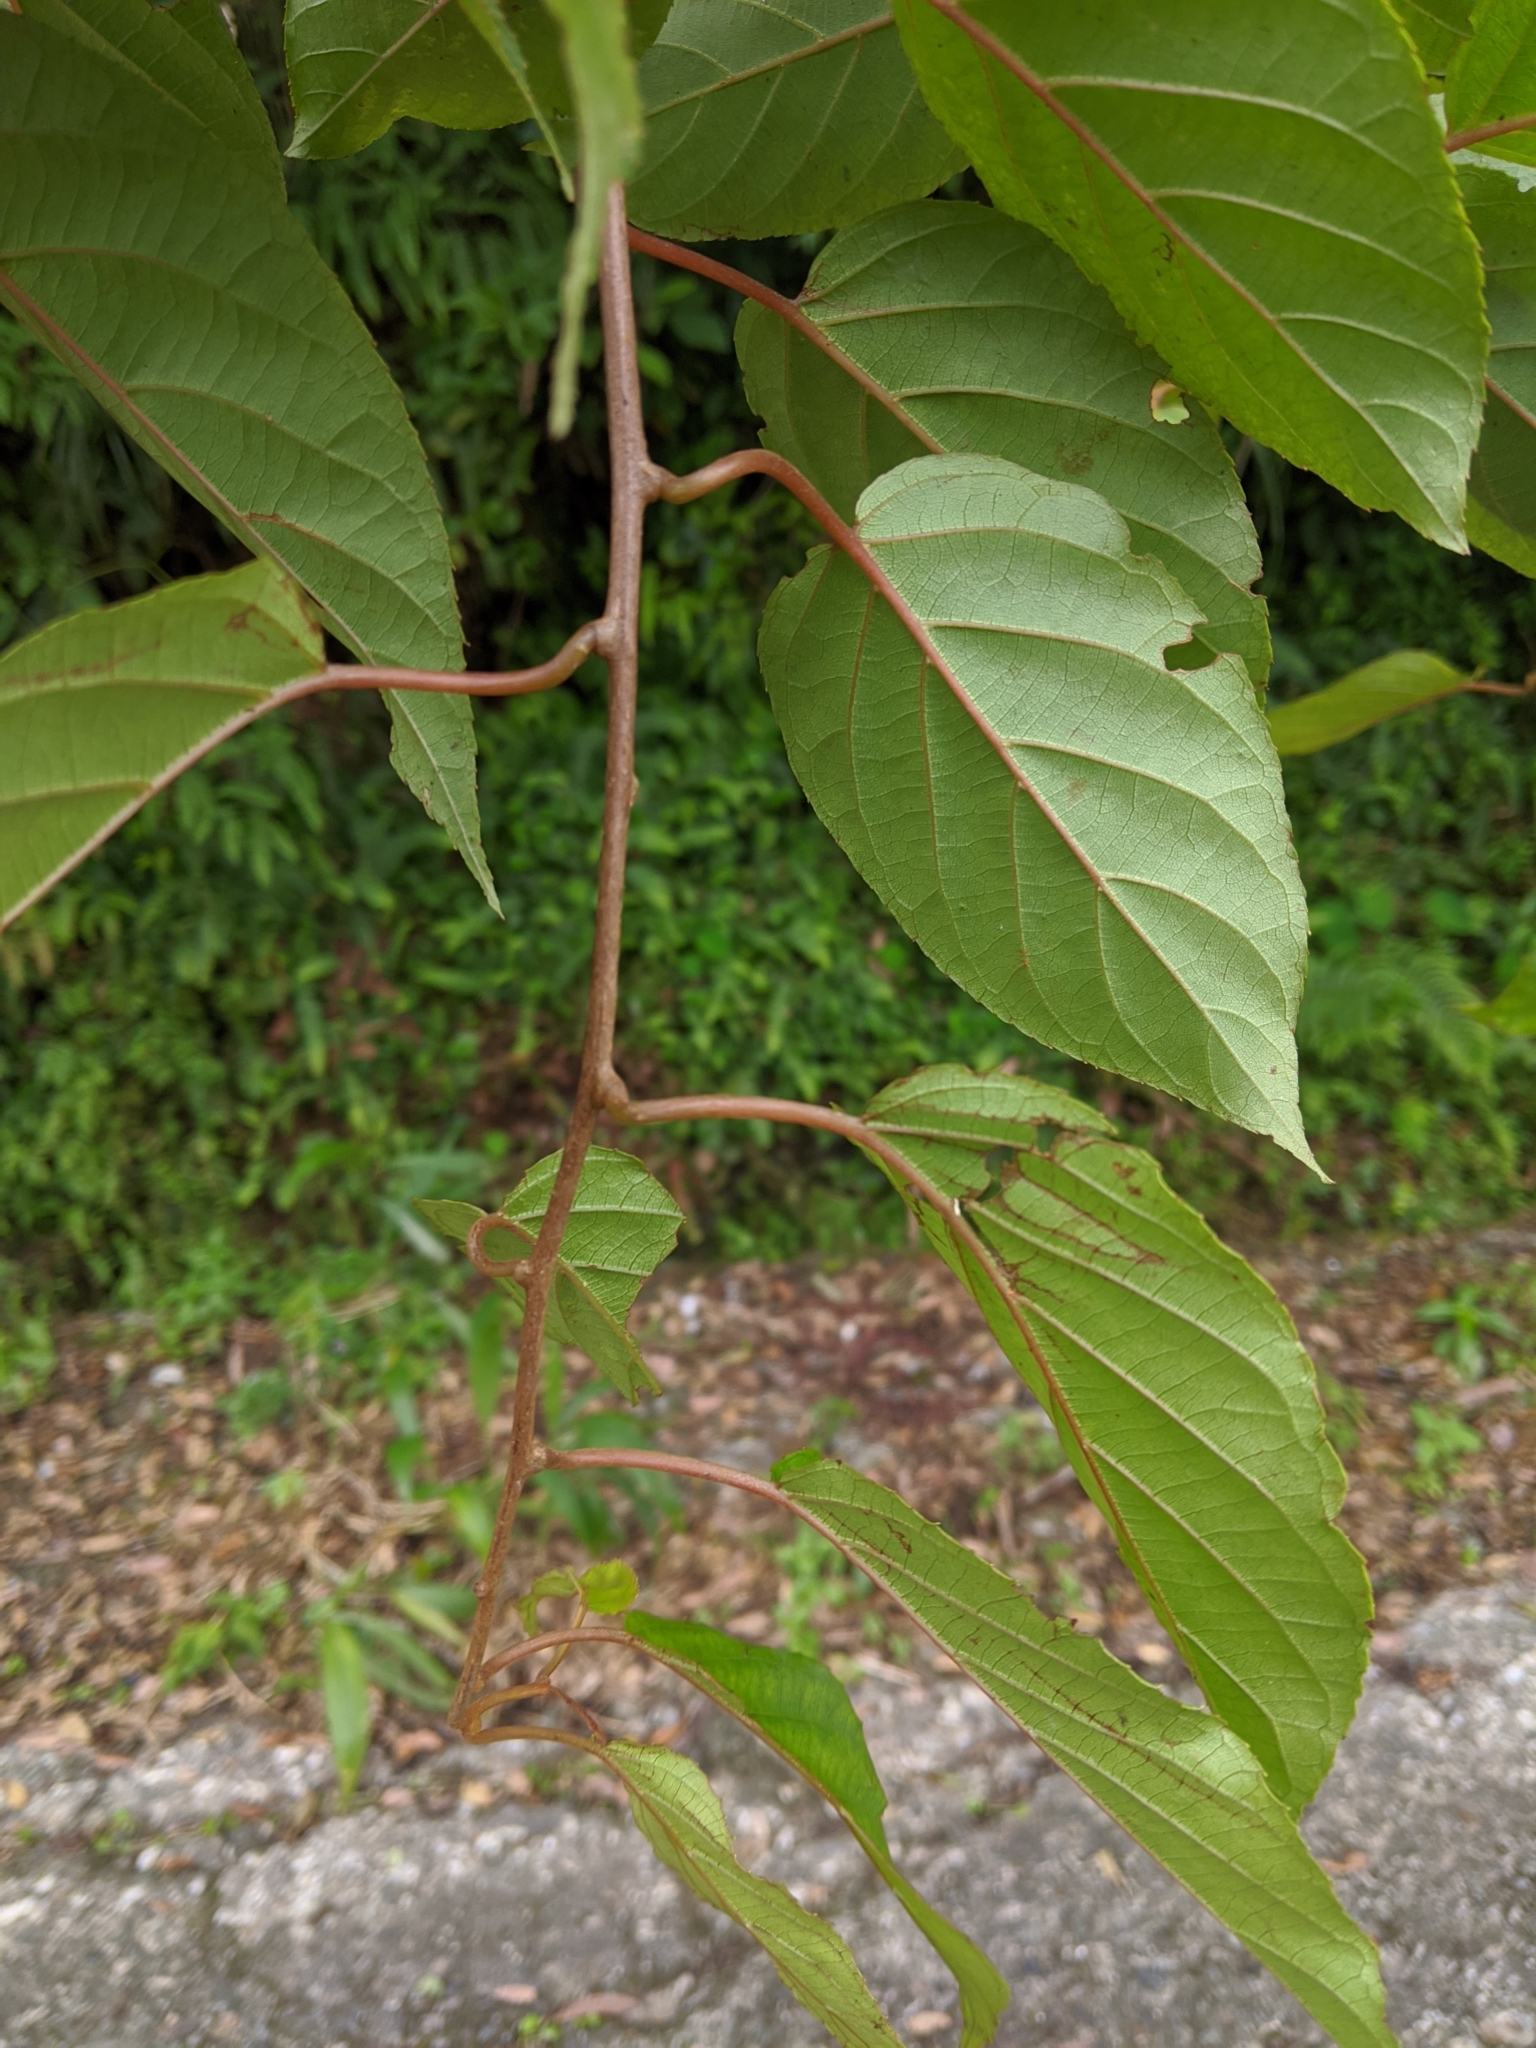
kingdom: Plantae
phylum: Tracheophyta
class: Magnoliopsida
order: Ericales
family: Actinidiaceae
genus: Actinidia
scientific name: Actinidia rufa
